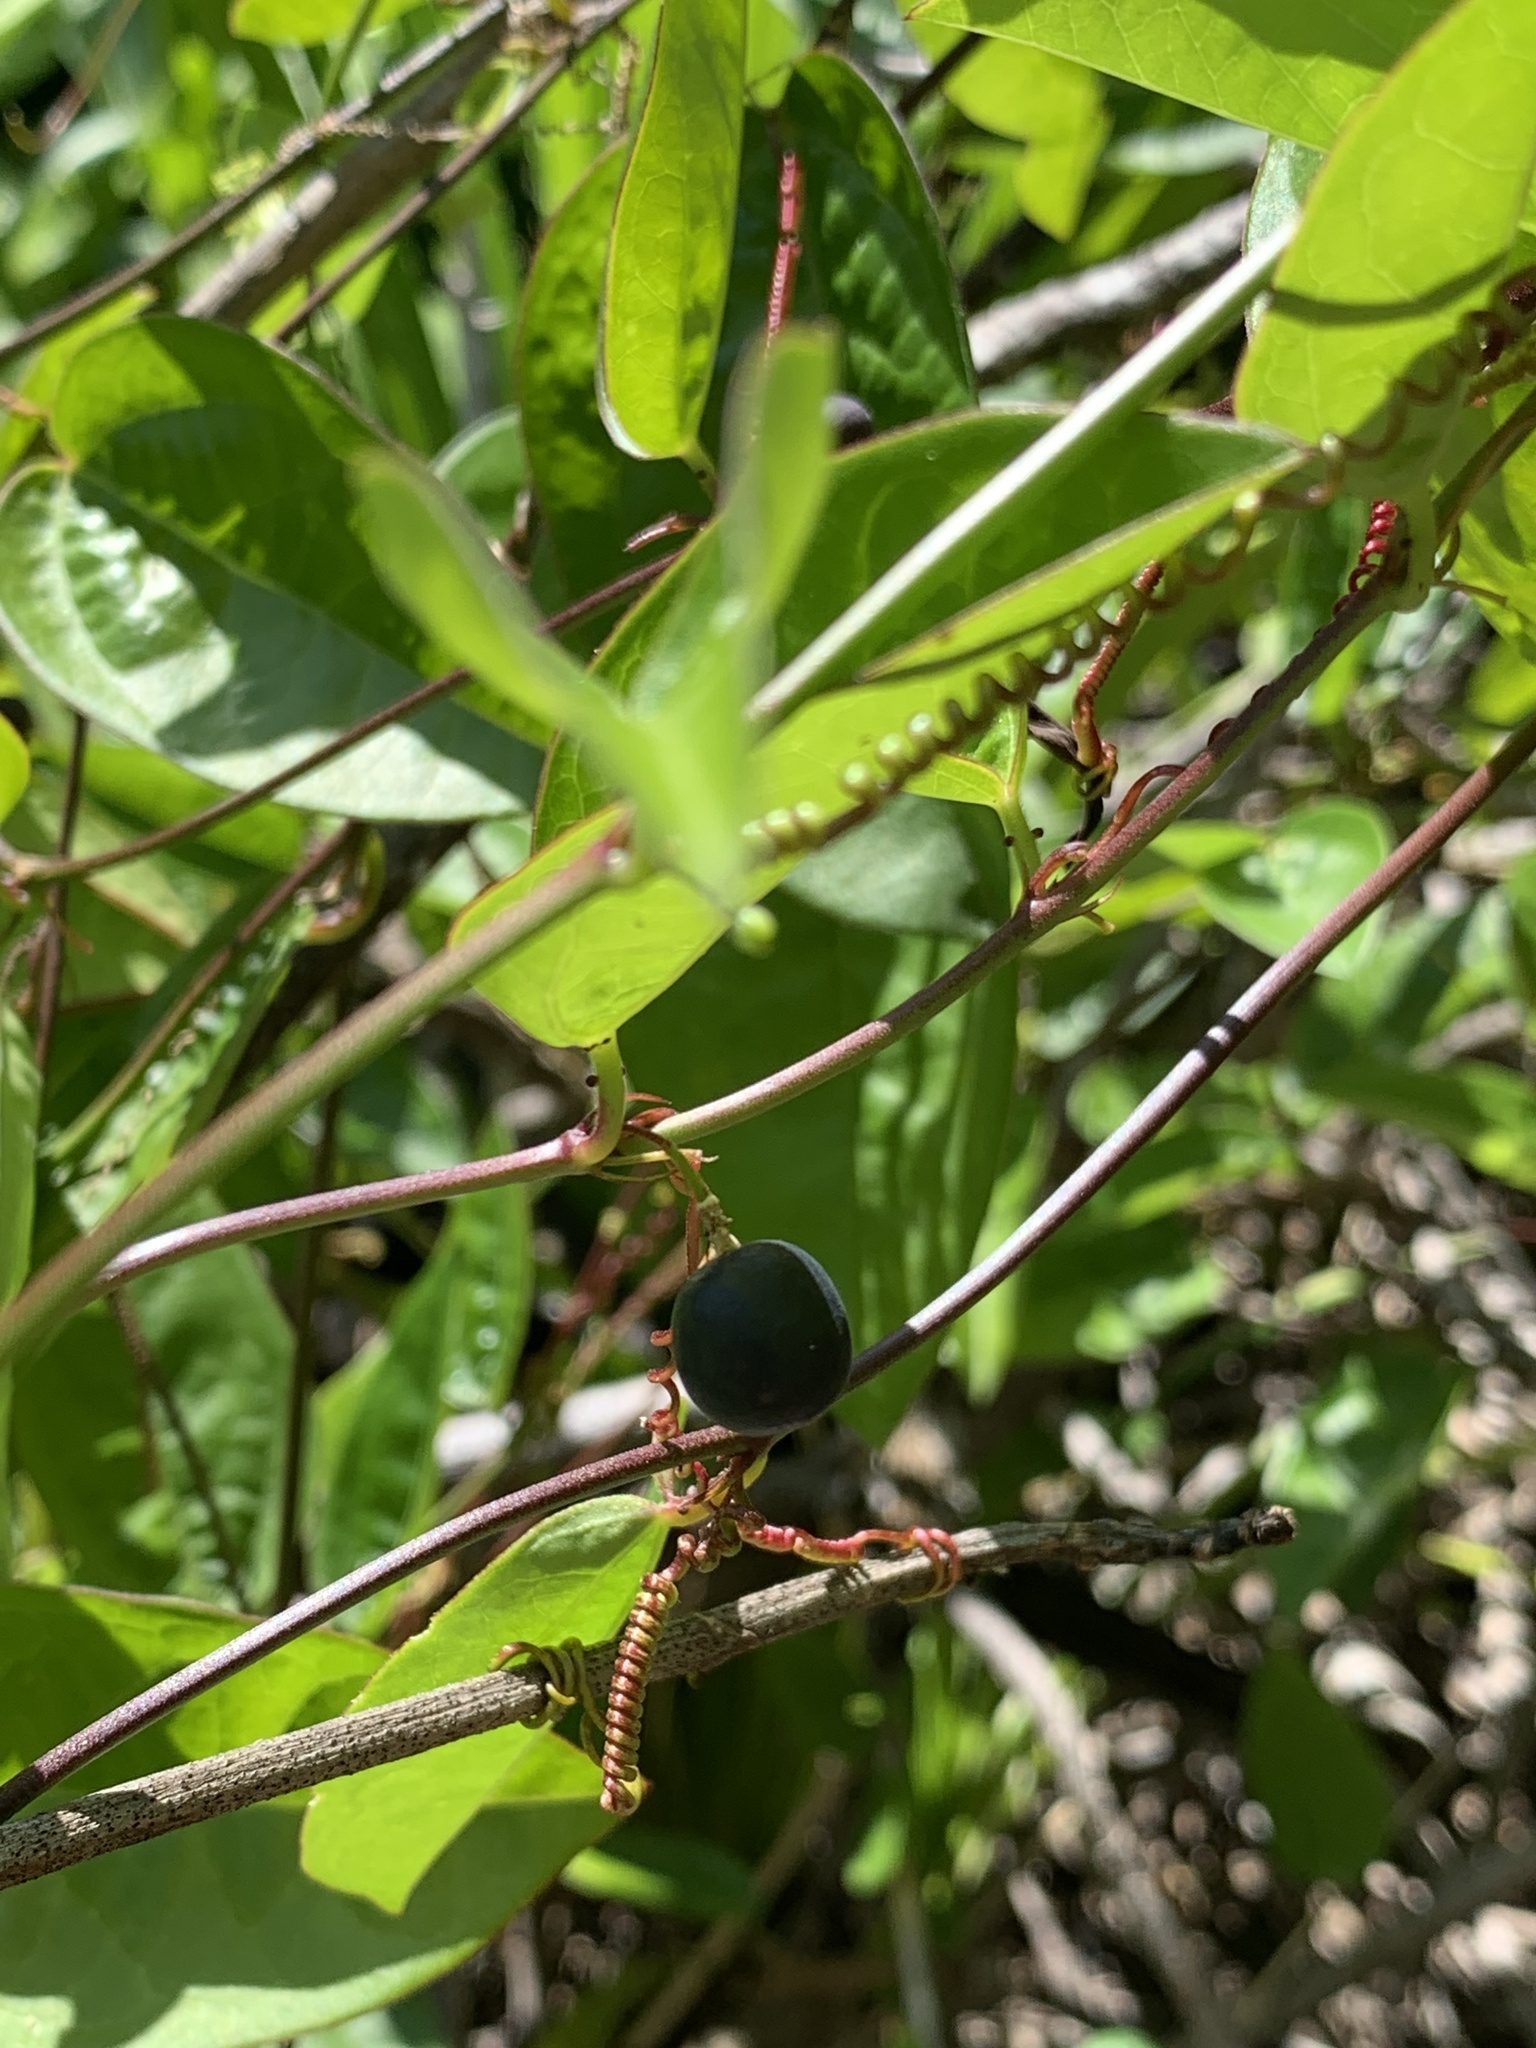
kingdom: Plantae
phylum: Tracheophyta
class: Magnoliopsida
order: Malpighiales
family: Passifloraceae
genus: Passiflora
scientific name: Passiflora pallida
